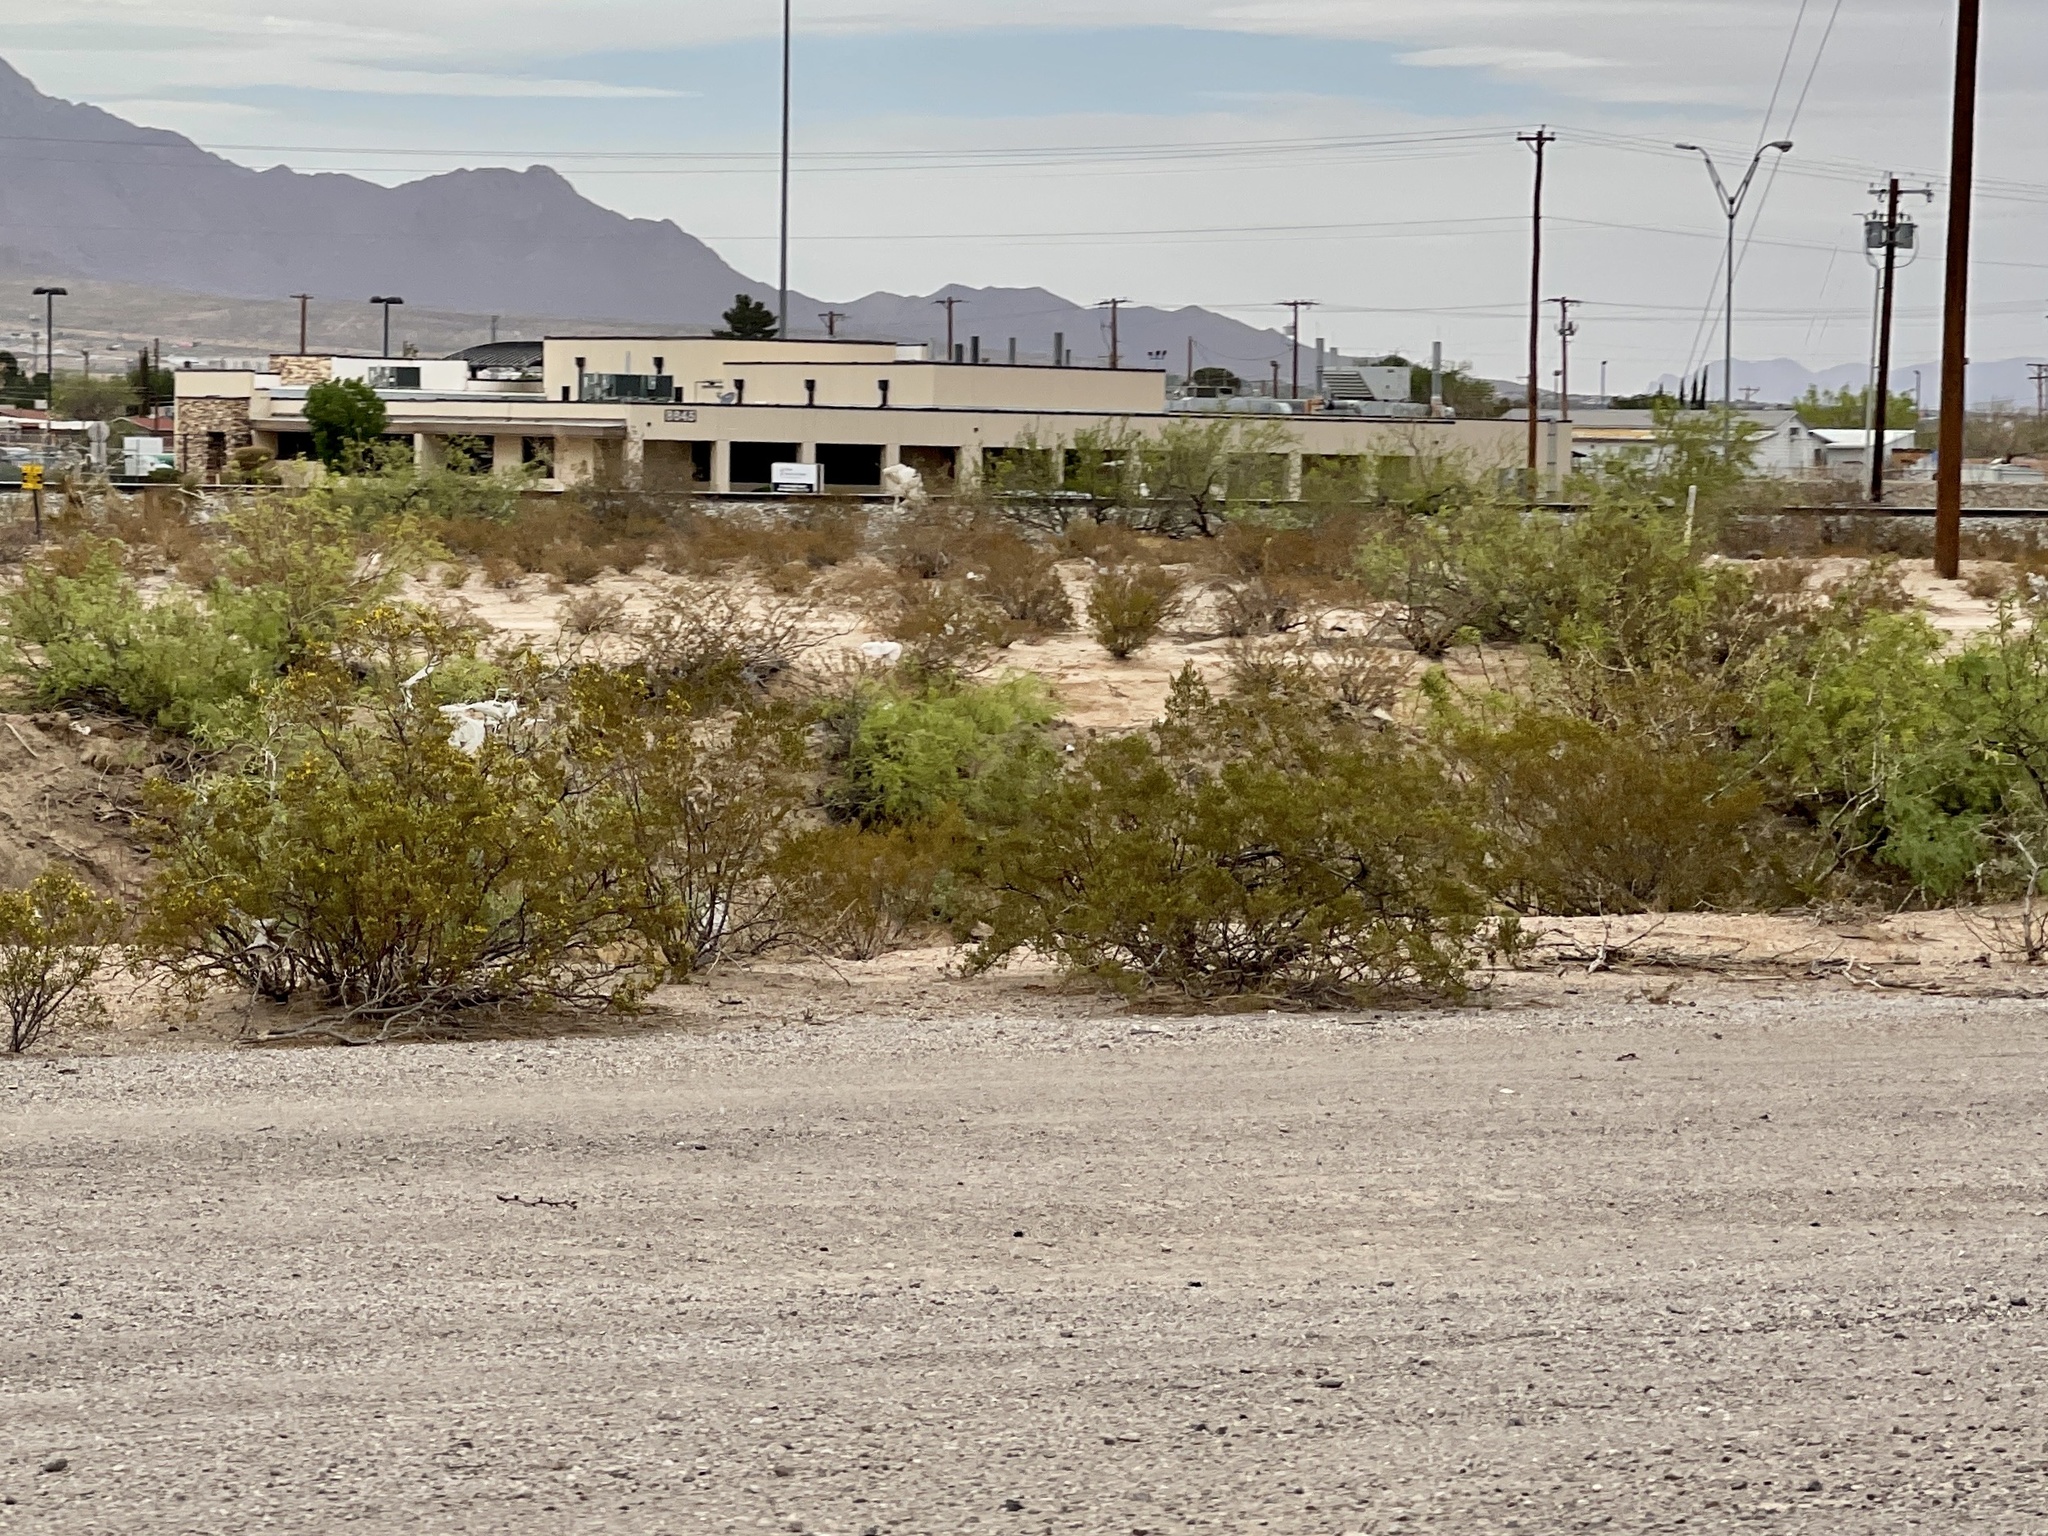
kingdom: Plantae
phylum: Tracheophyta
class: Magnoliopsida
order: Zygophyllales
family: Zygophyllaceae
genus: Larrea
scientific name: Larrea tridentata
